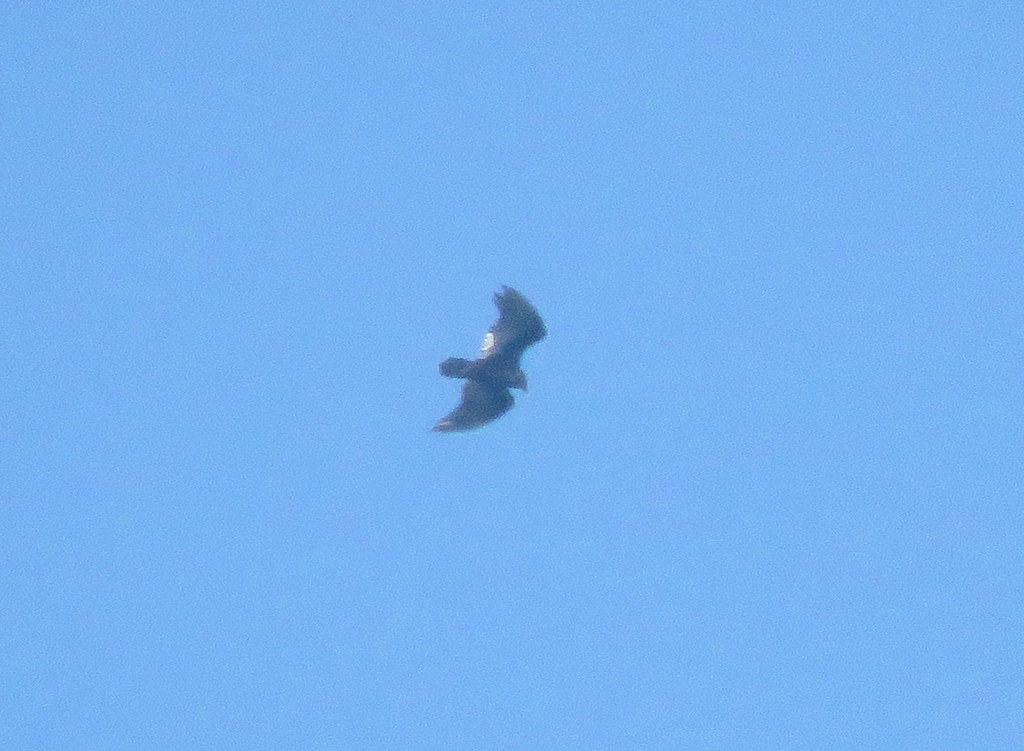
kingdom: Animalia
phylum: Chordata
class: Aves
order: Accipitriformes
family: Cathartidae
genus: Cathartes
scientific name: Cathartes aura
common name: Turkey vulture
